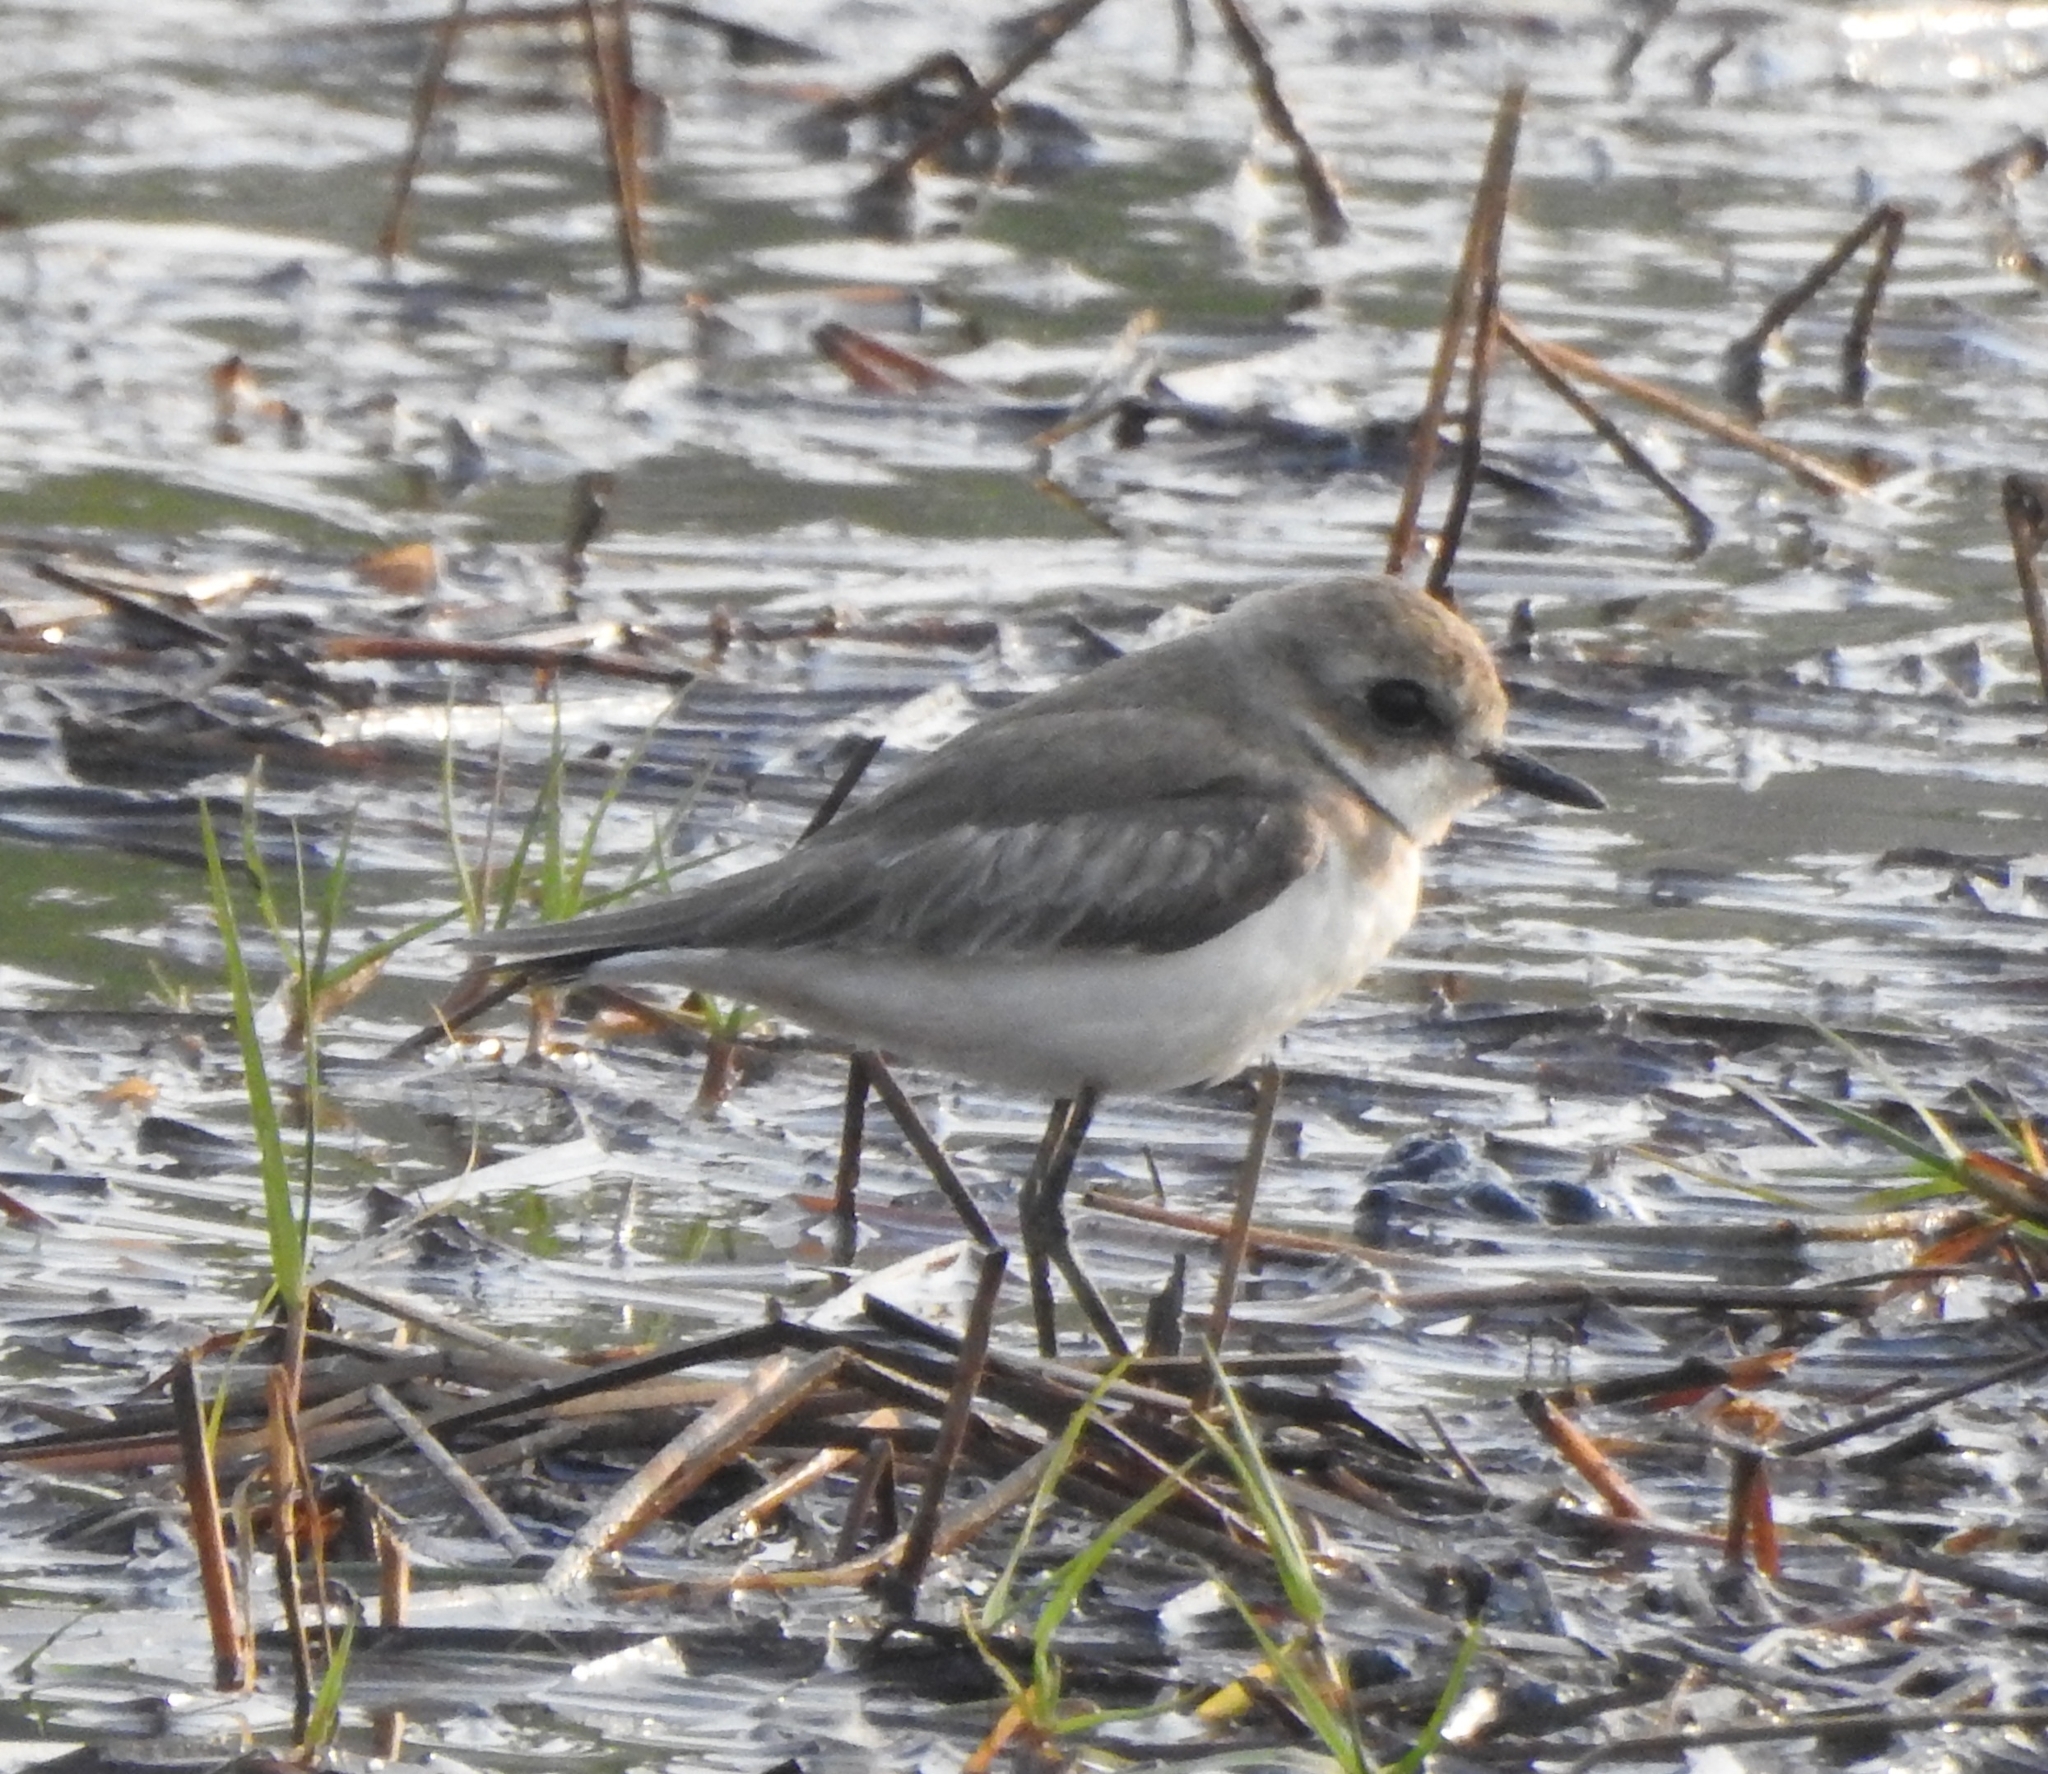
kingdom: Animalia
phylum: Chordata
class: Aves
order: Charadriiformes
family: Charadriidae
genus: Anarhynchus
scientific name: Anarhynchus
